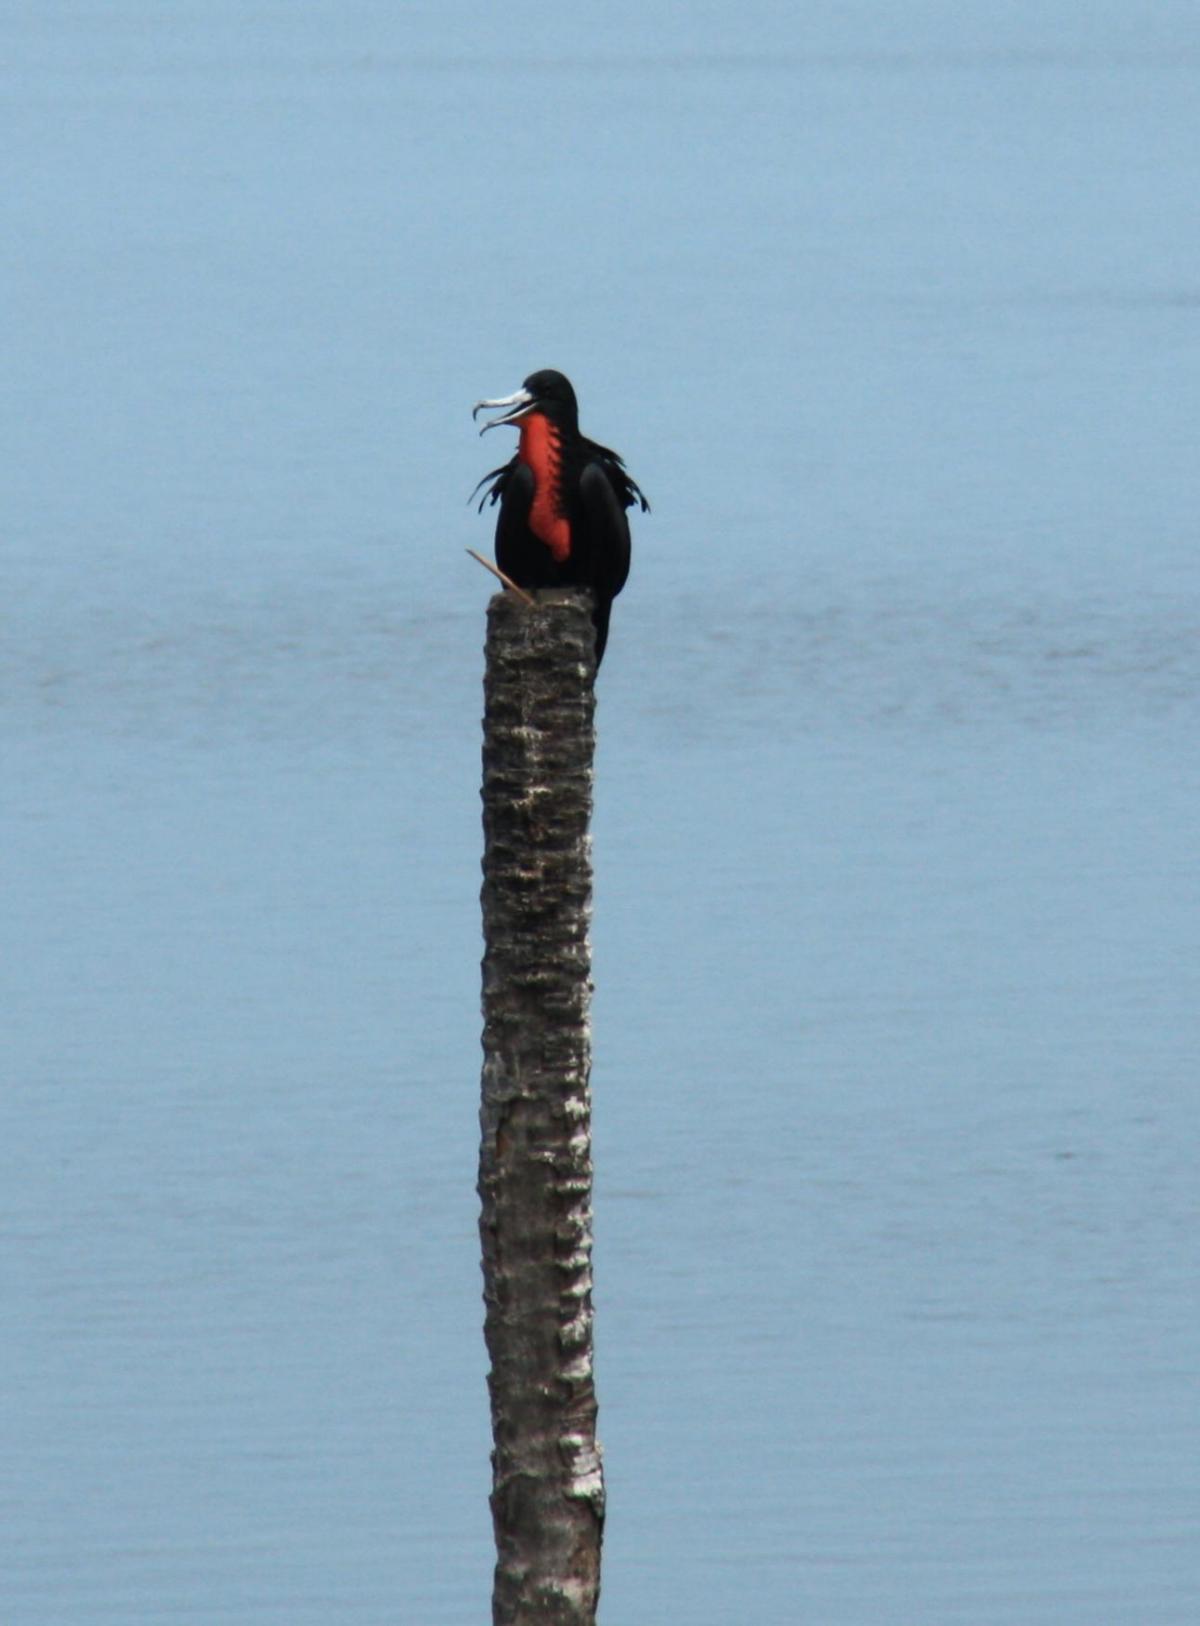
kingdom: Animalia
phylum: Chordata
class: Aves
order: Suliformes
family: Fregatidae
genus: Fregata
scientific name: Fregata magnificens
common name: Magnificent frigatebird
